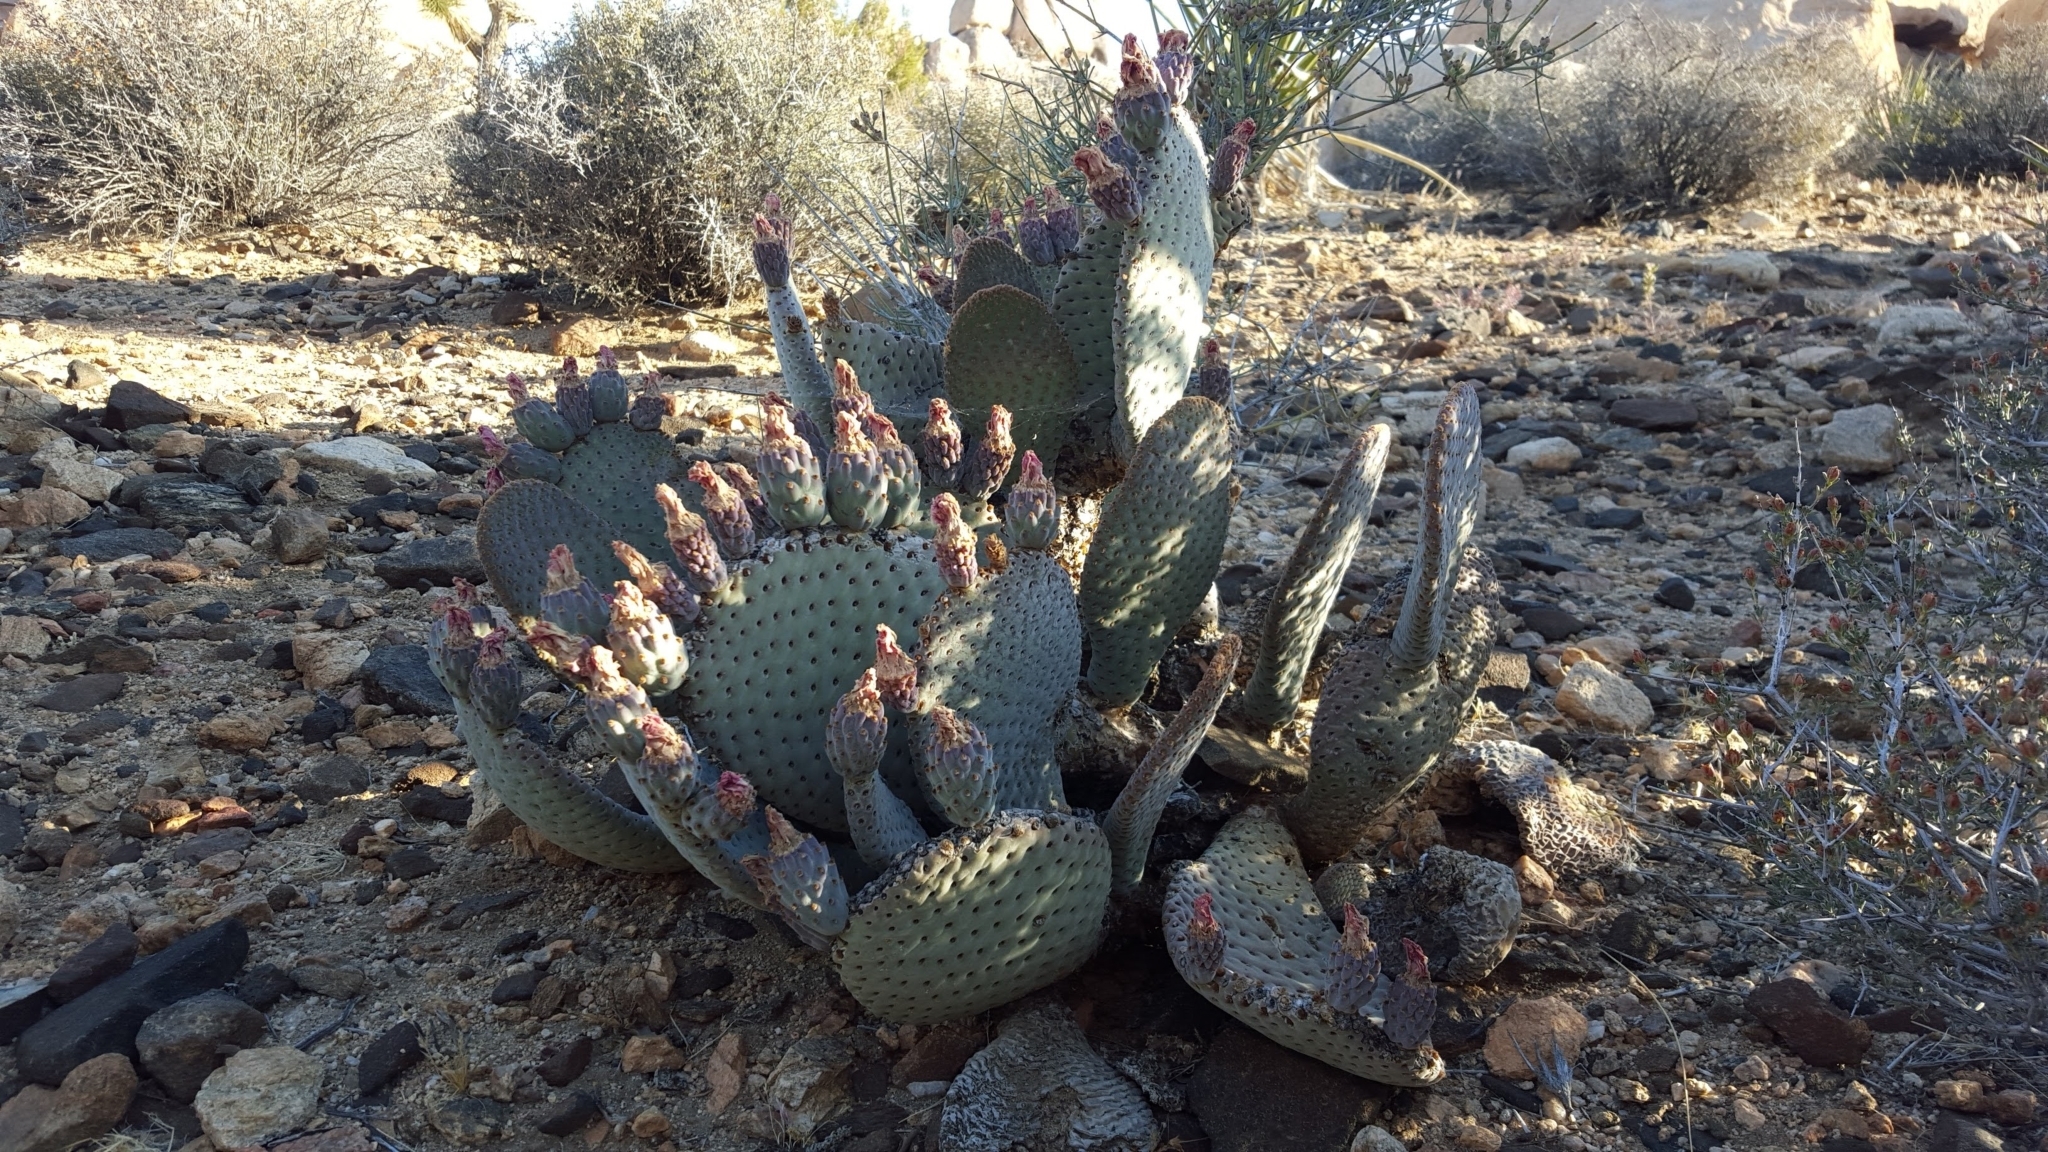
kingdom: Plantae
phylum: Tracheophyta
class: Magnoliopsida
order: Caryophyllales
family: Cactaceae
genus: Opuntia
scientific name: Opuntia basilaris
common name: Beavertail prickly-pear
